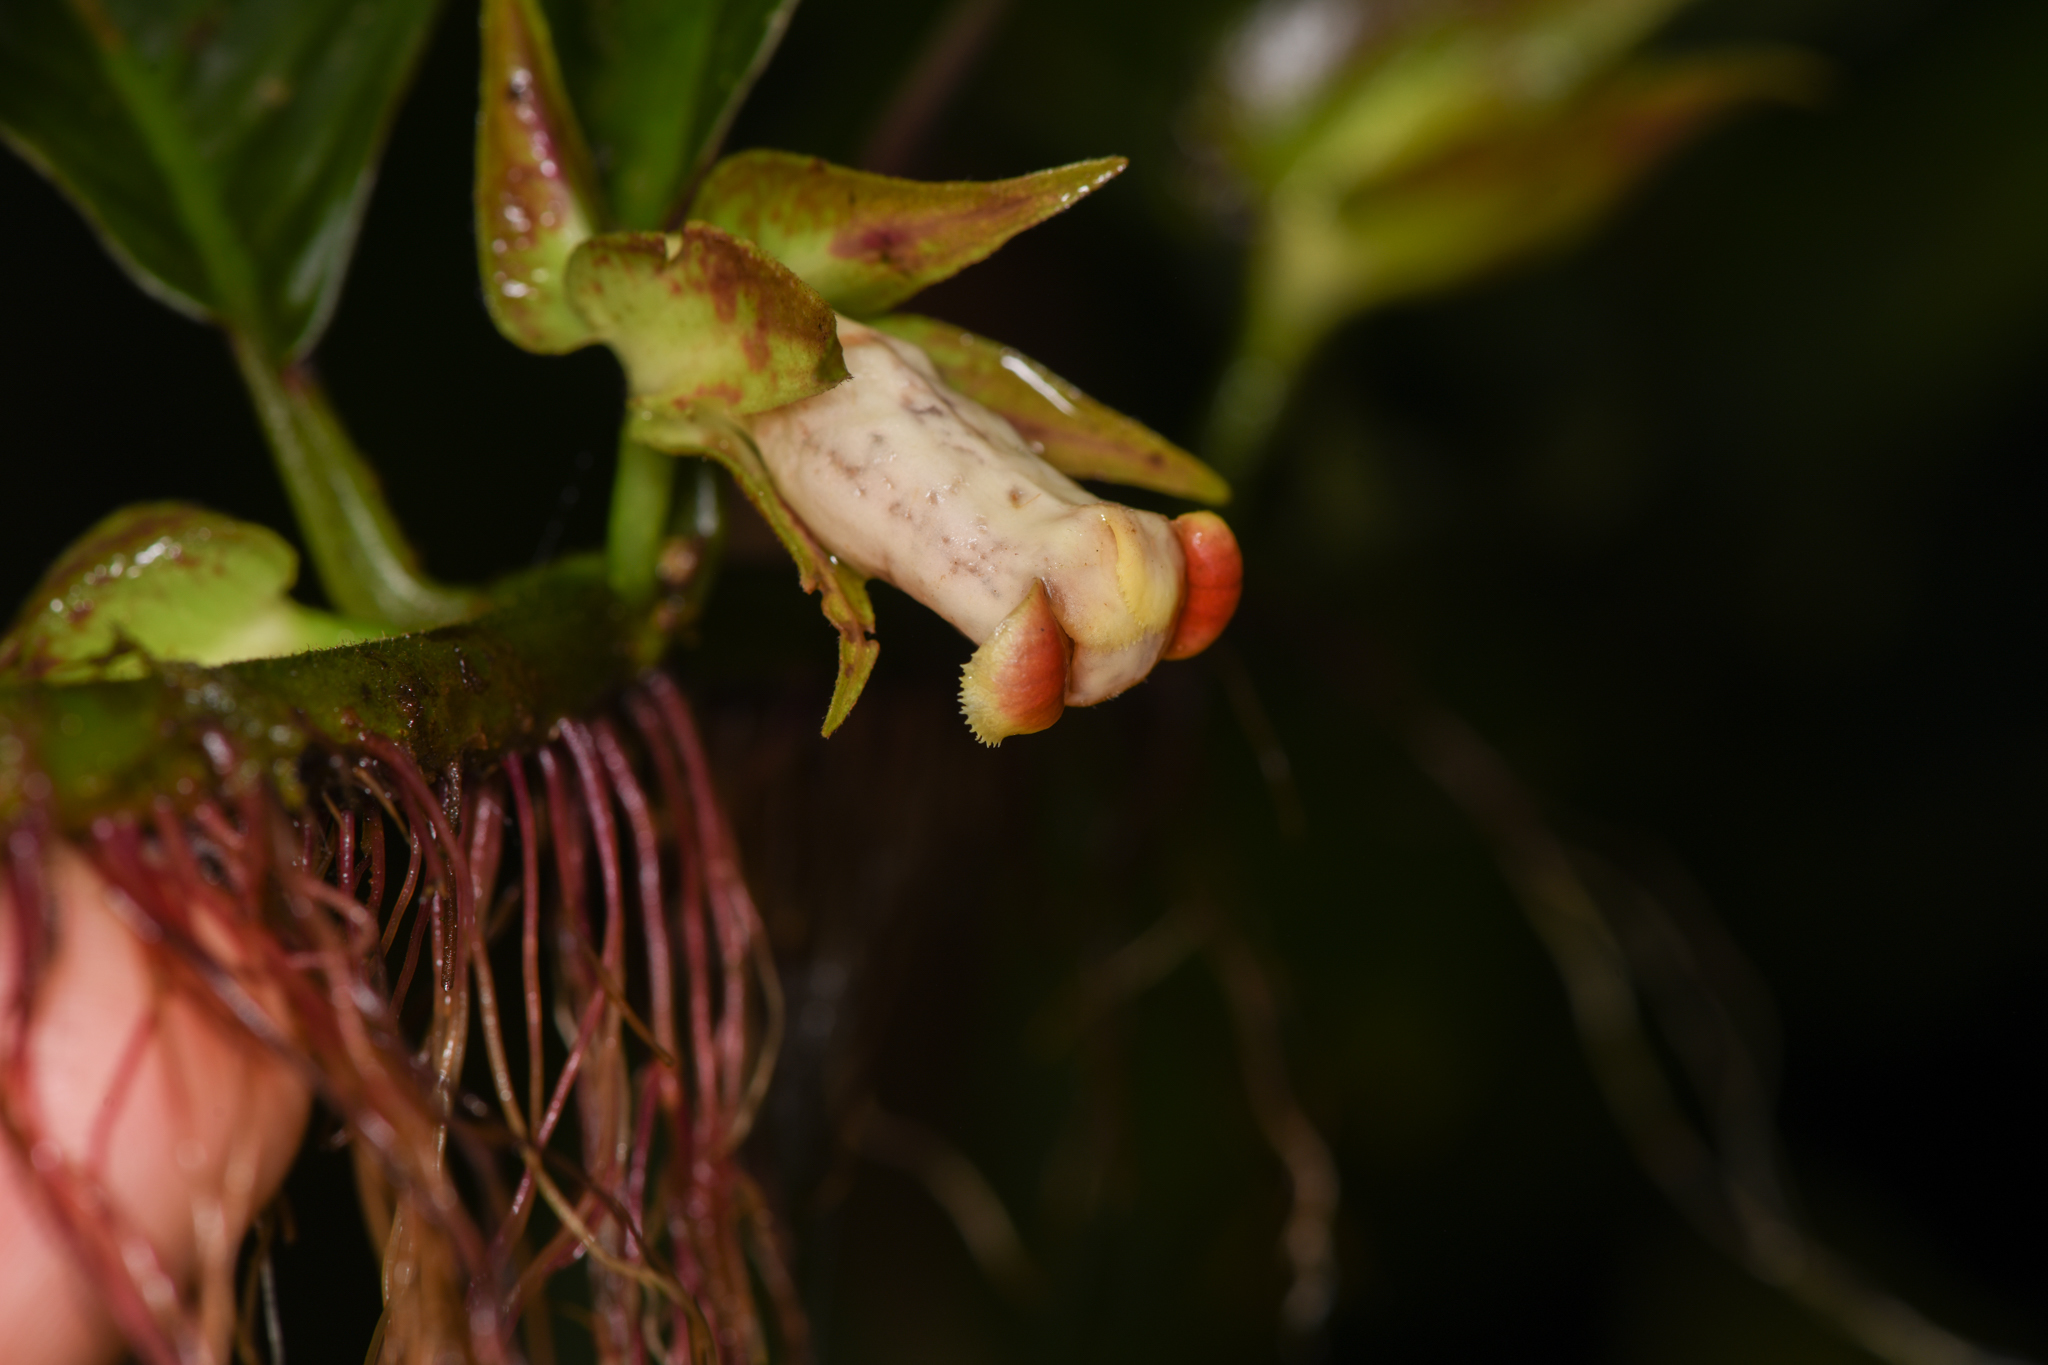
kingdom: Plantae
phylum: Tracheophyta
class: Magnoliopsida
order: Lamiales
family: Gesneriaceae
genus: Drymonia
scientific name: Drymonia warszewicziana
